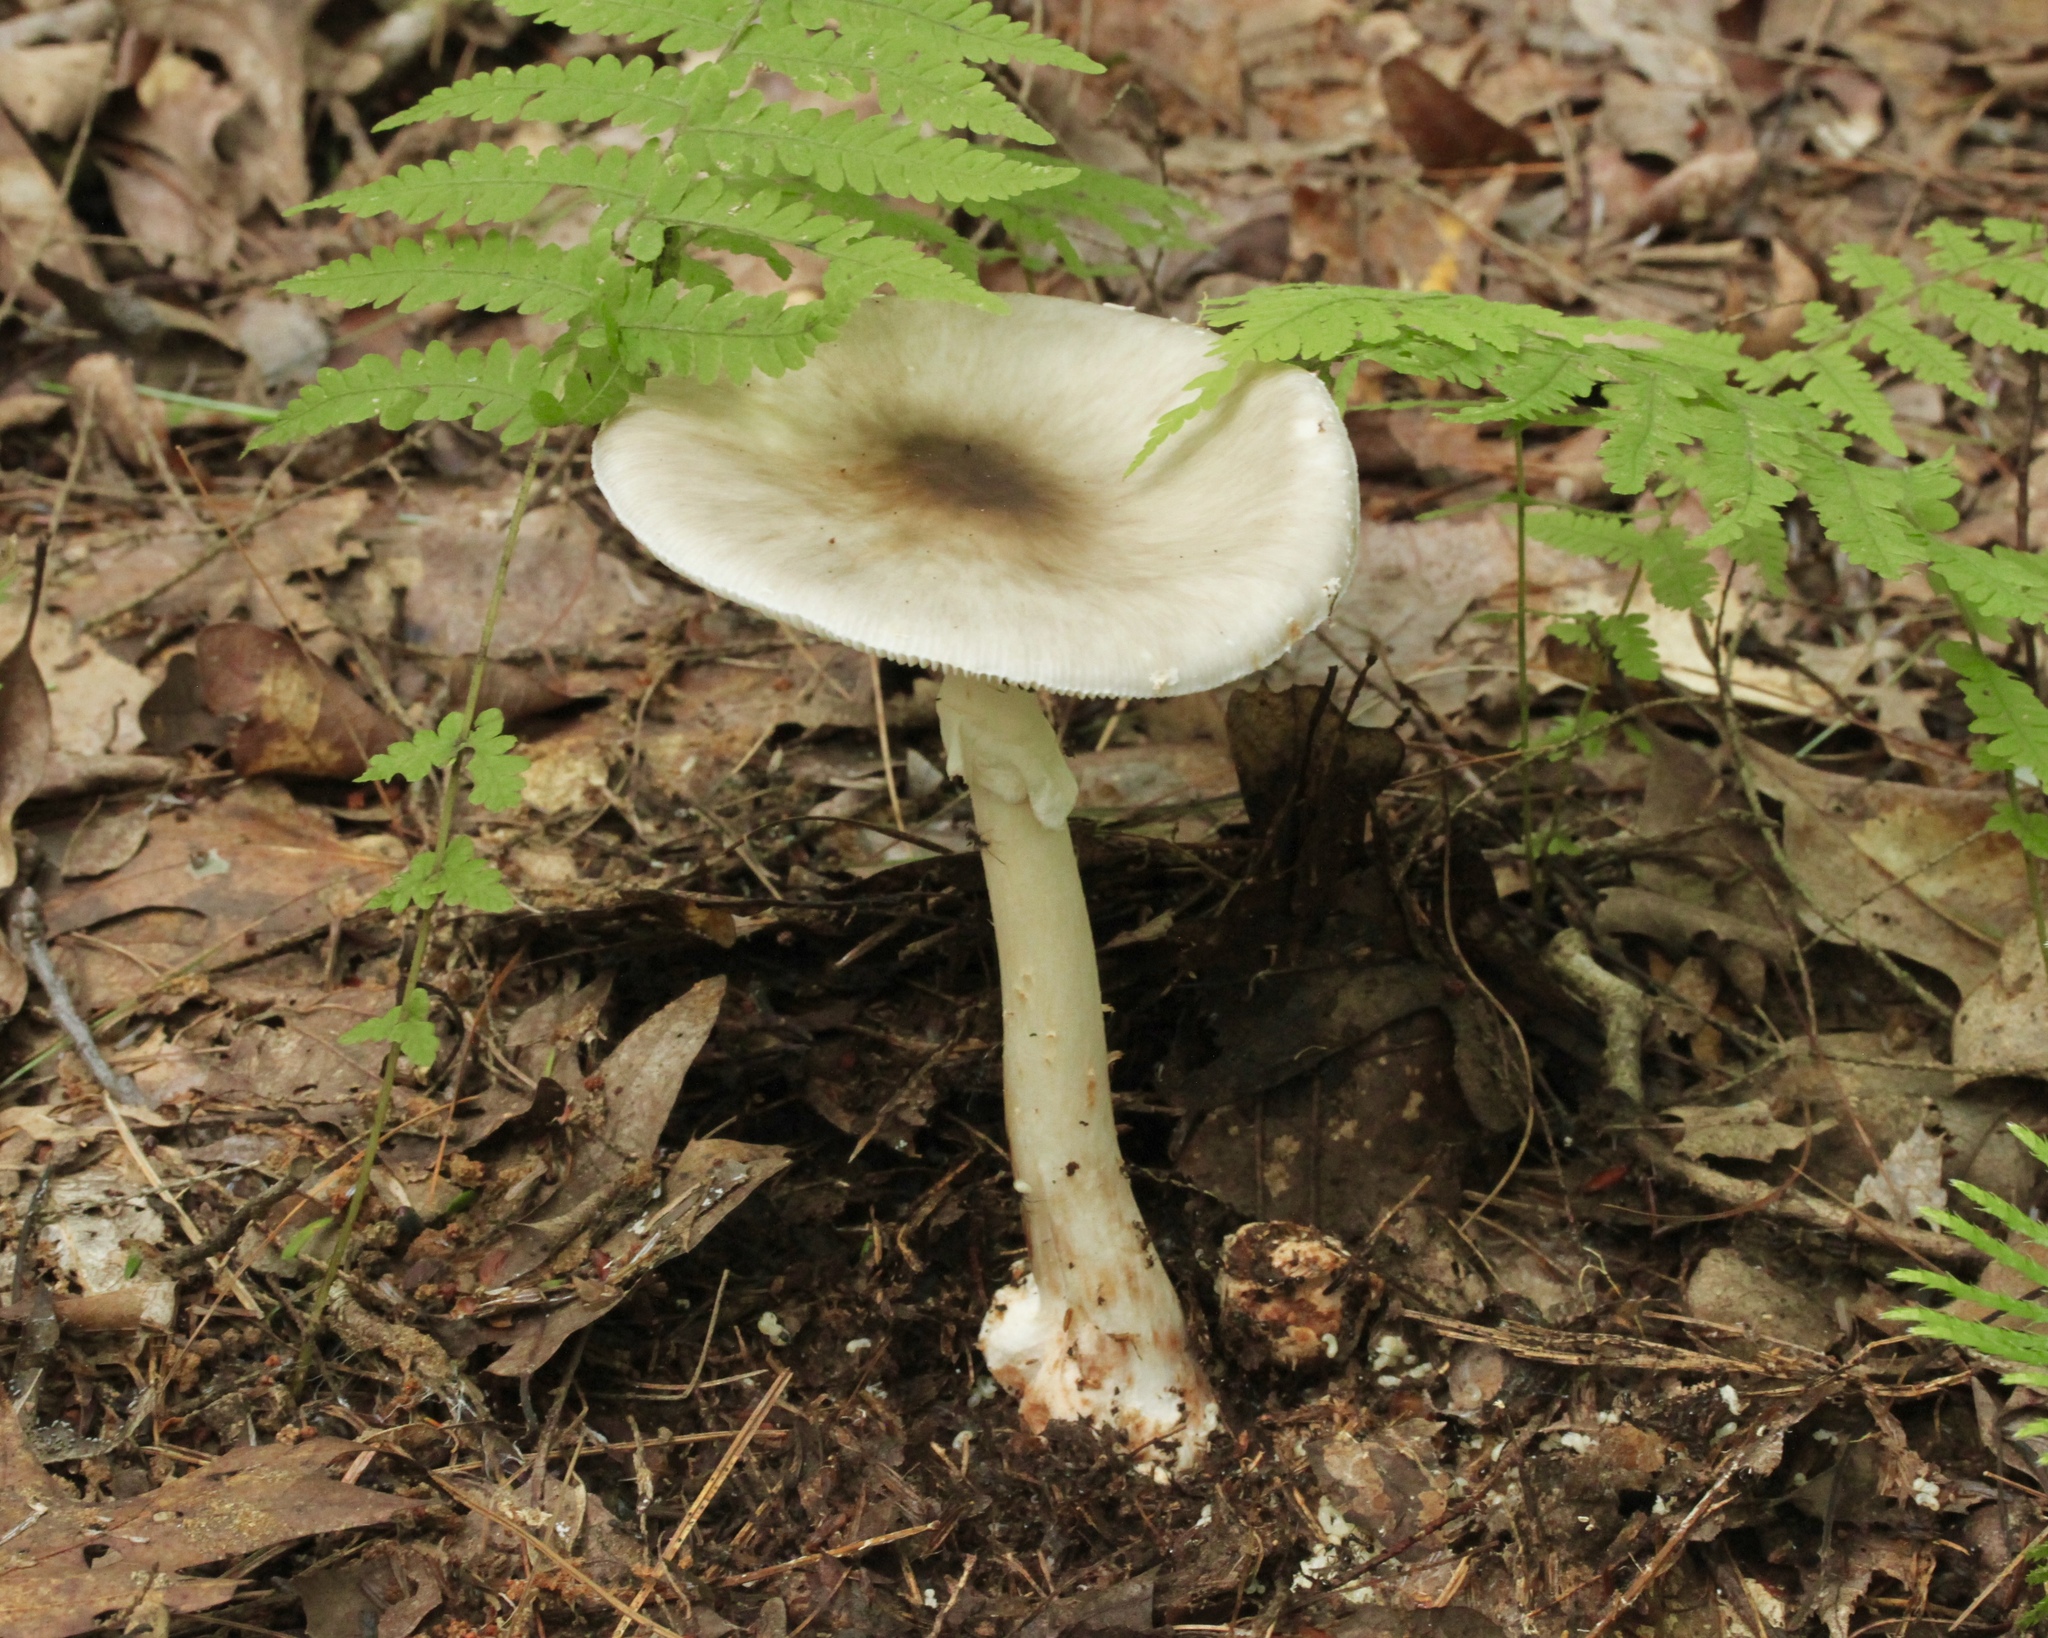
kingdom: Fungi
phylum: Basidiomycota
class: Agaricomycetes
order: Agaricales
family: Amanitaceae
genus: Amanita
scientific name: Amanita brunnescens
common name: Brown american star-footed amanita
